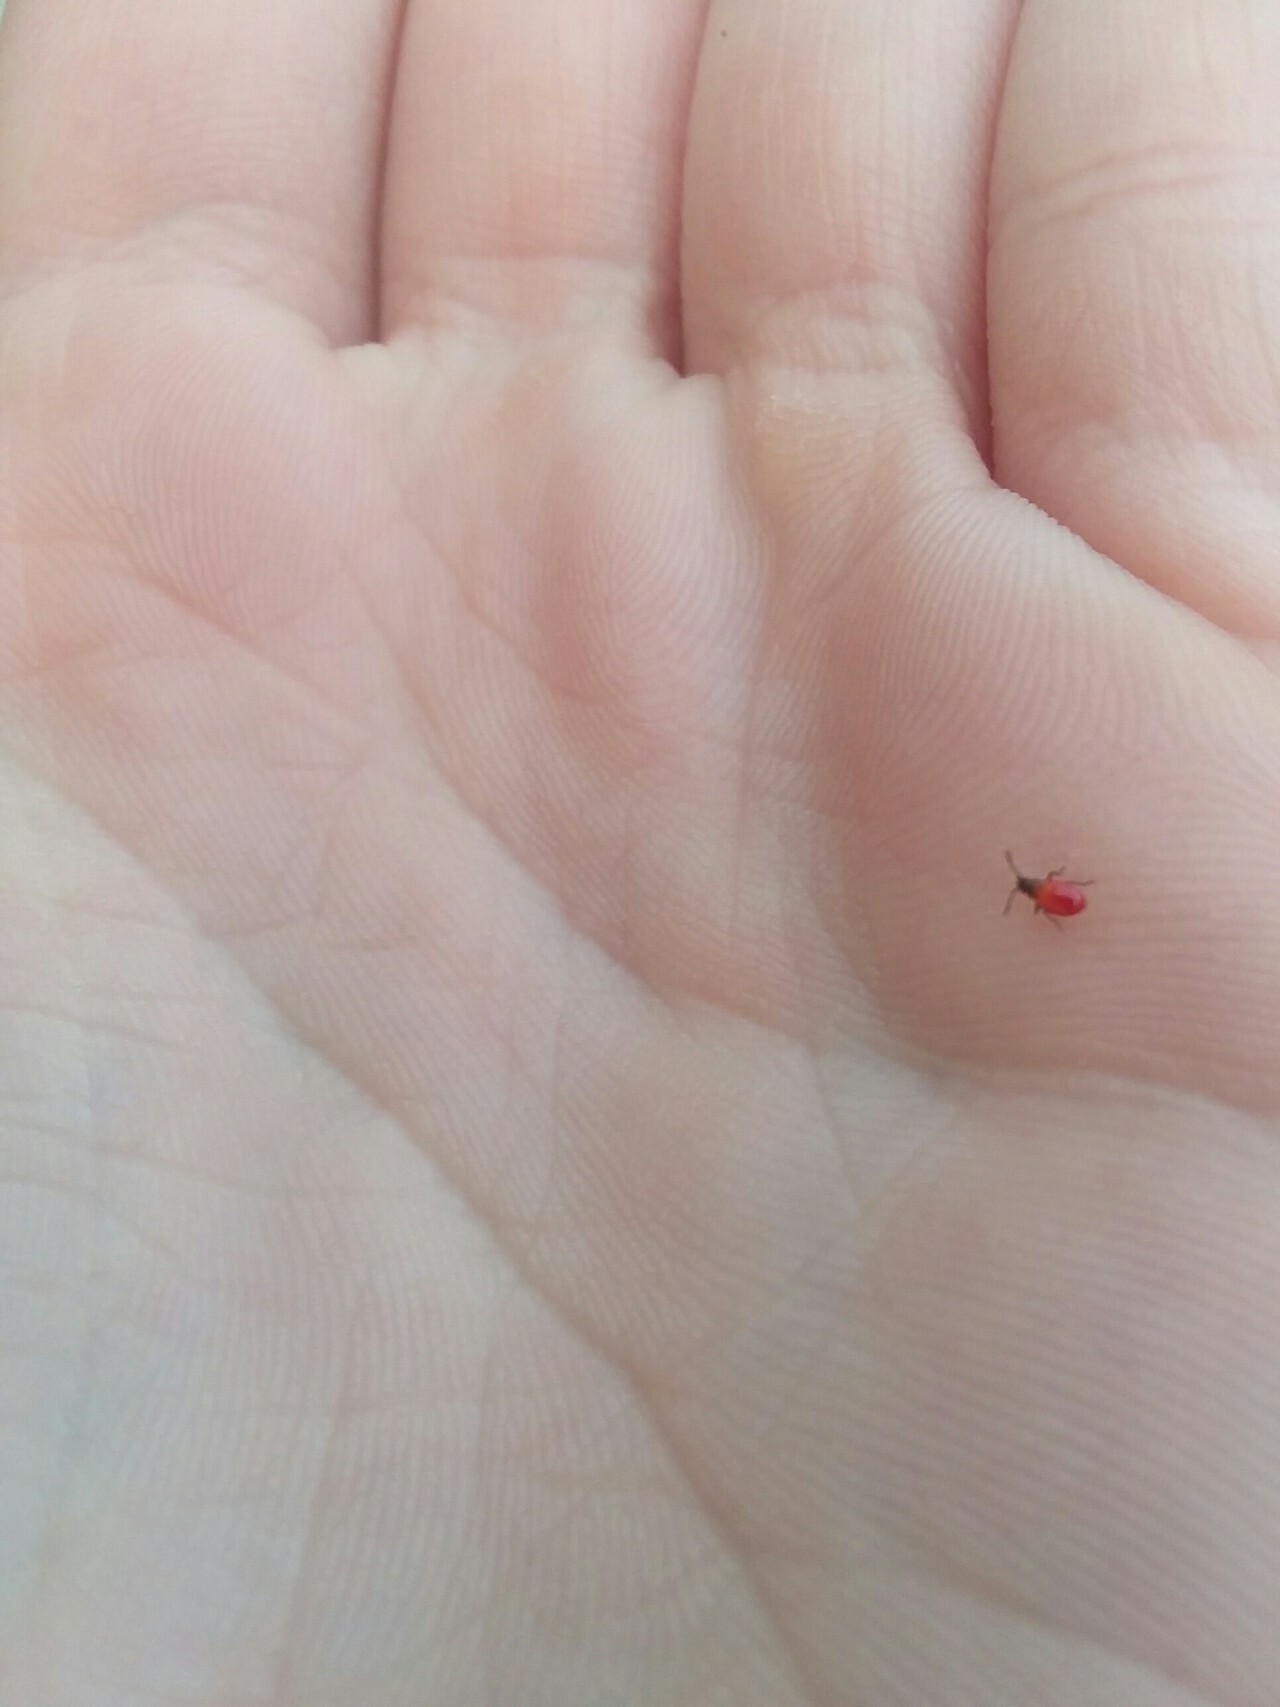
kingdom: Animalia
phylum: Arthropoda
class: Insecta
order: Hemiptera
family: Lygaeidae
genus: Oncopeltus
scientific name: Oncopeltus fasciatus
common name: Large milkweed bug
